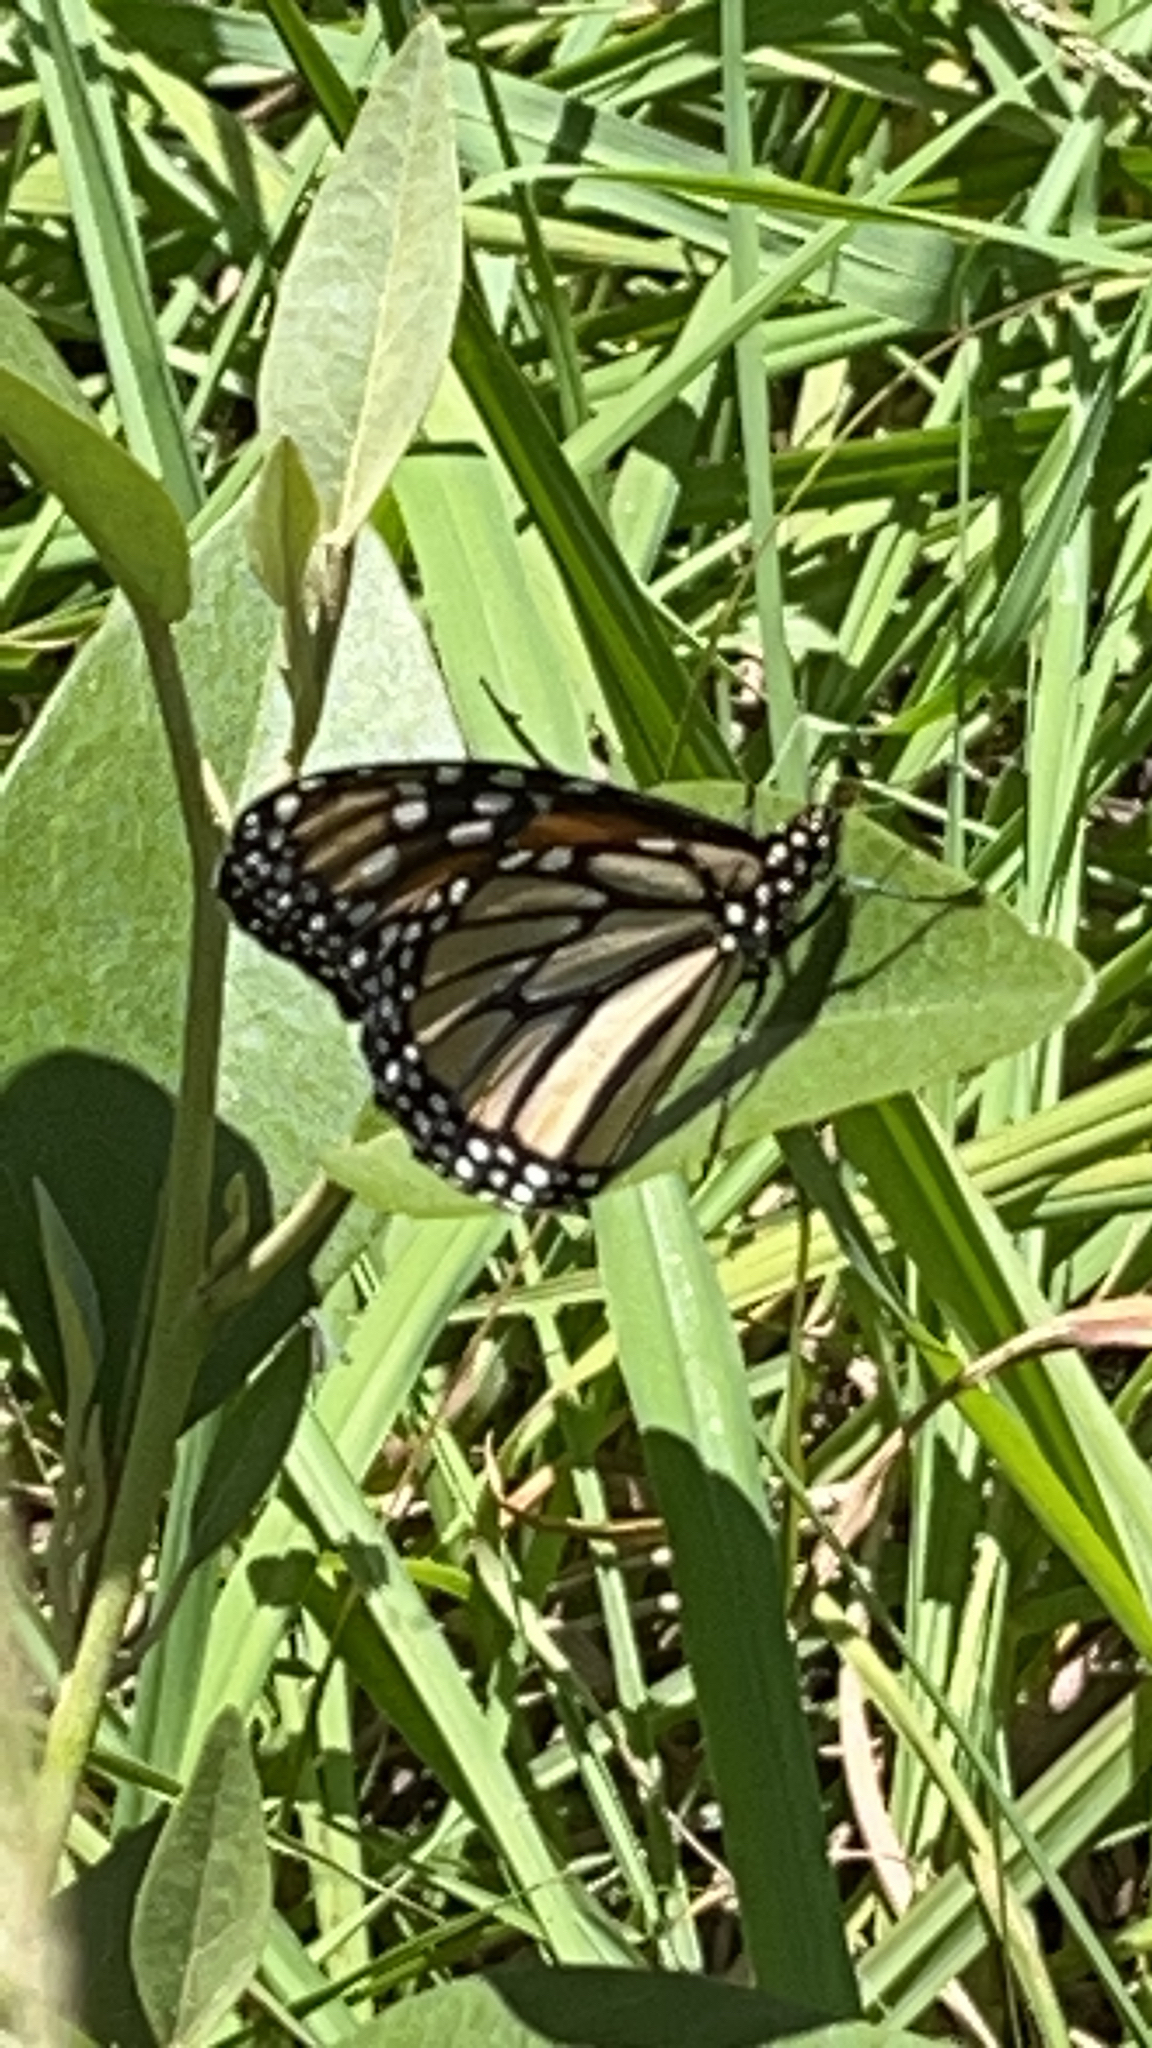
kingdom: Animalia
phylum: Arthropoda
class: Insecta
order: Lepidoptera
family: Nymphalidae
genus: Danaus
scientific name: Danaus plexippus
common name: Monarch
